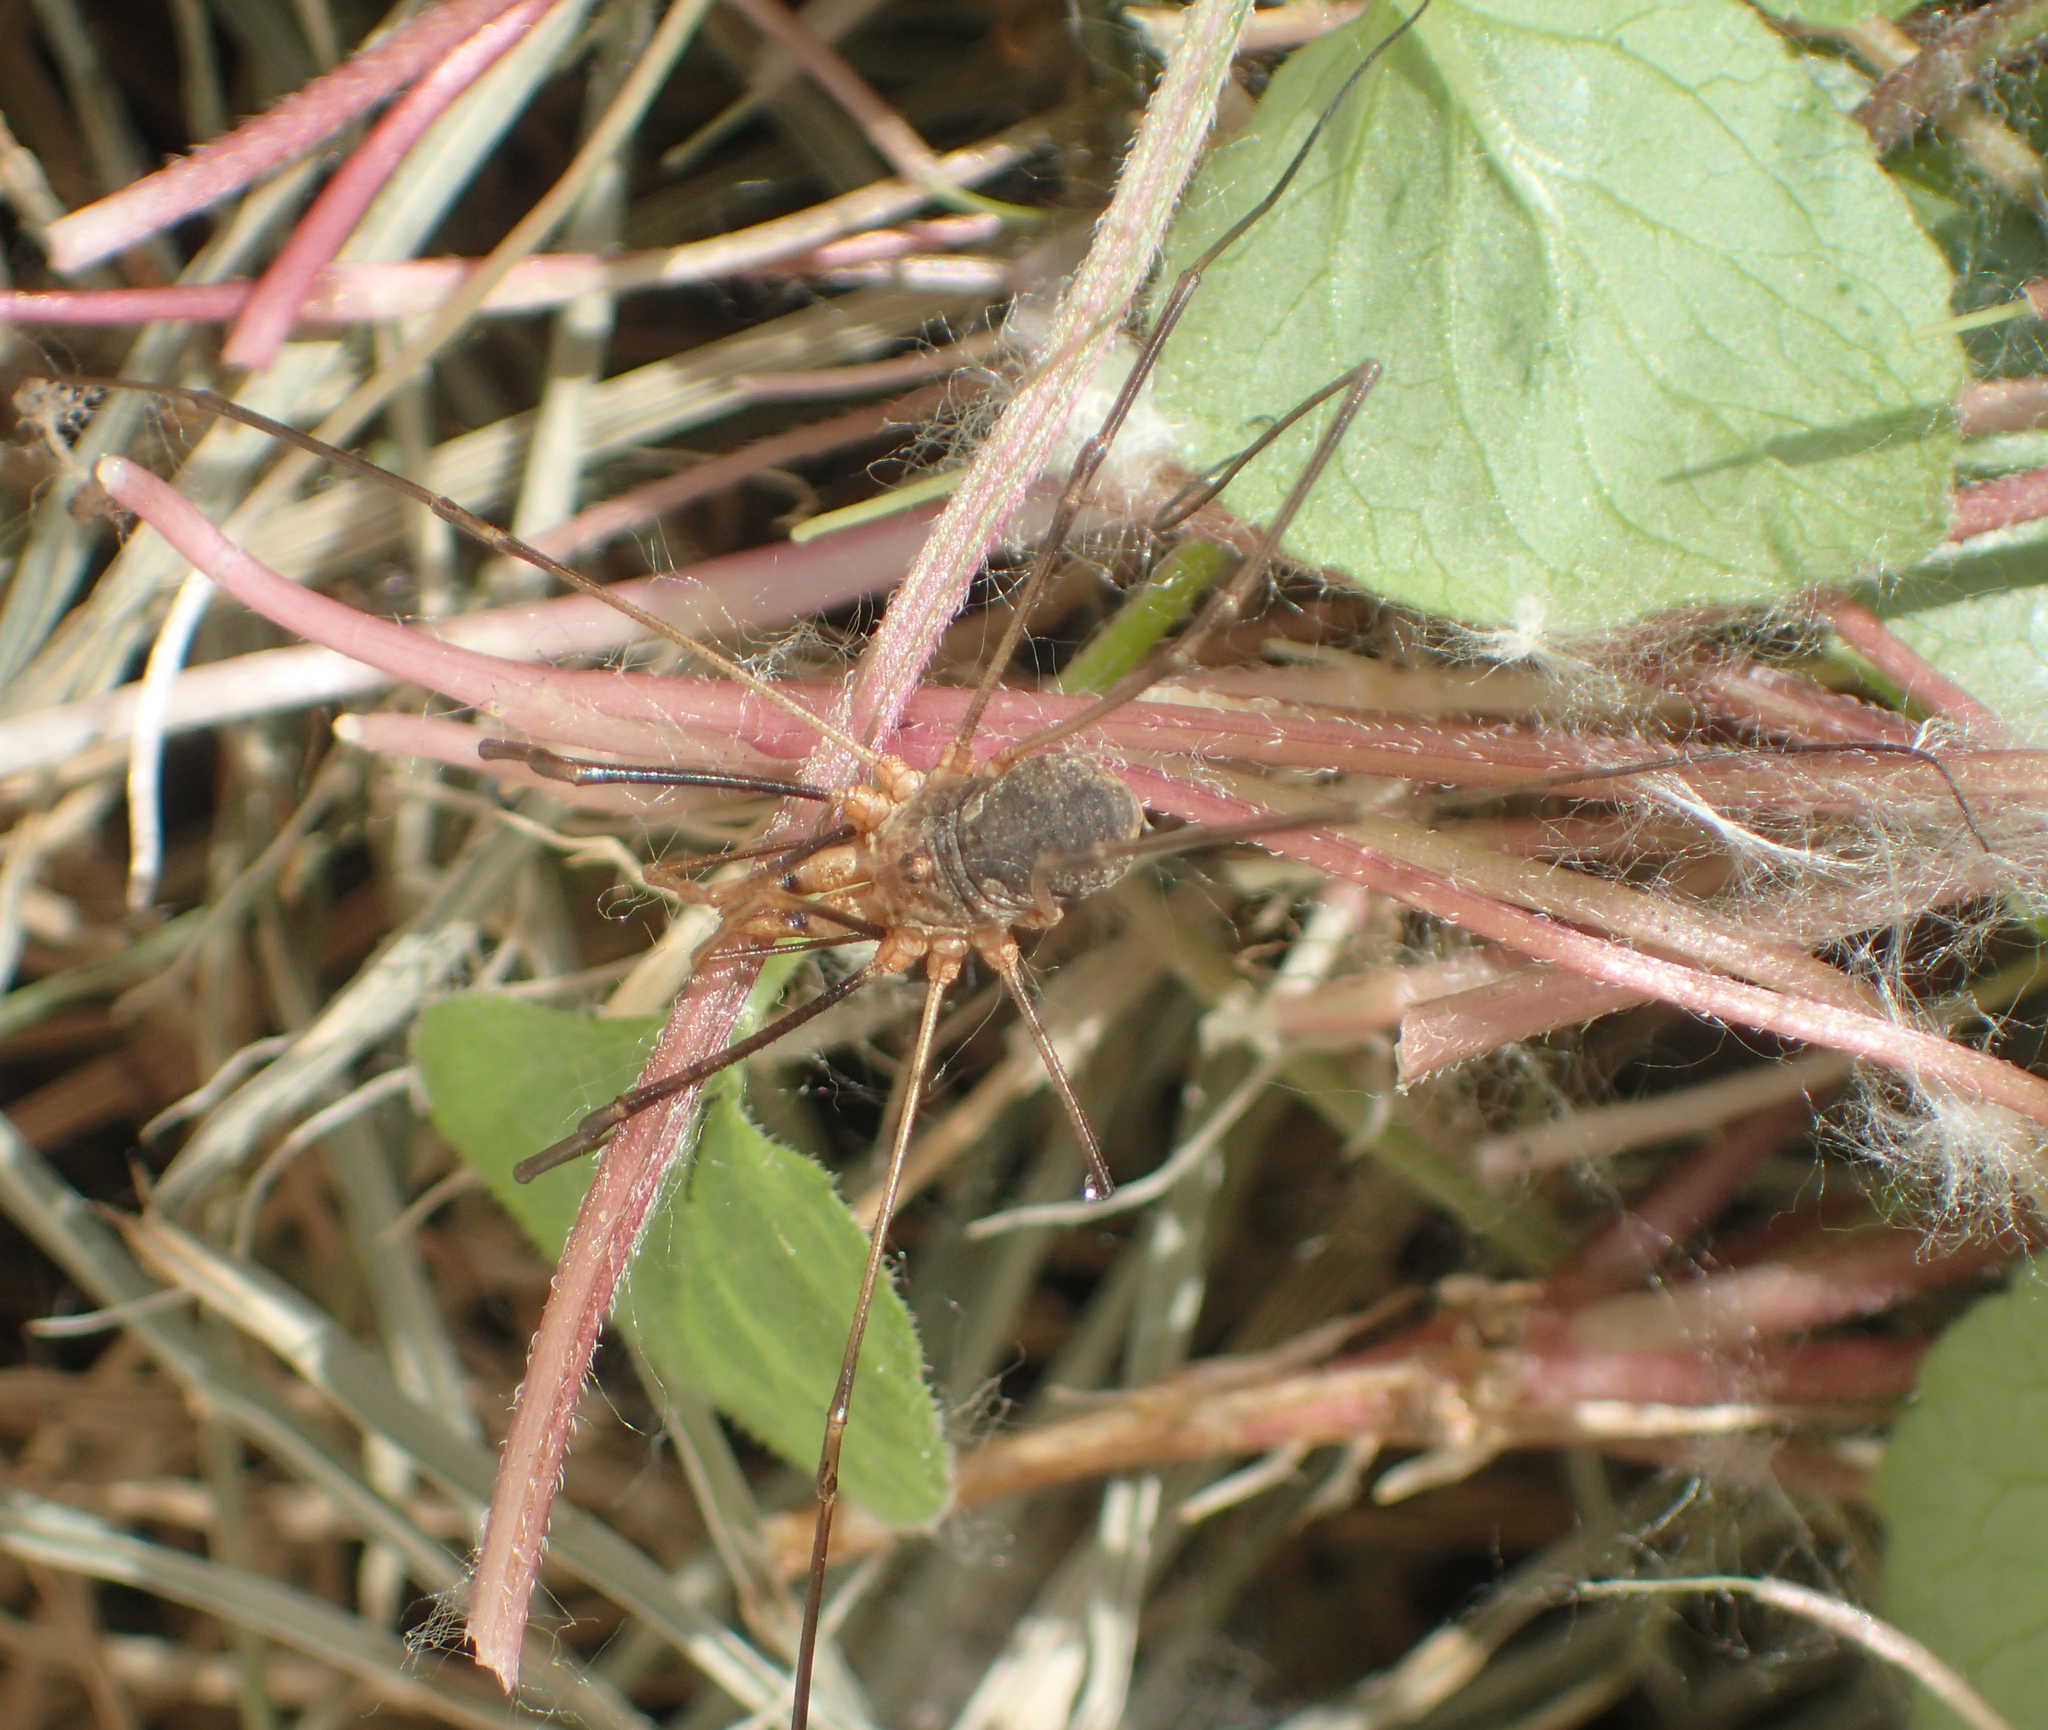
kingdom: Animalia
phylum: Arthropoda
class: Arachnida
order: Opiliones
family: Phalangiidae
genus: Phalangium
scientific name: Phalangium opilio
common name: Daddy longleg
